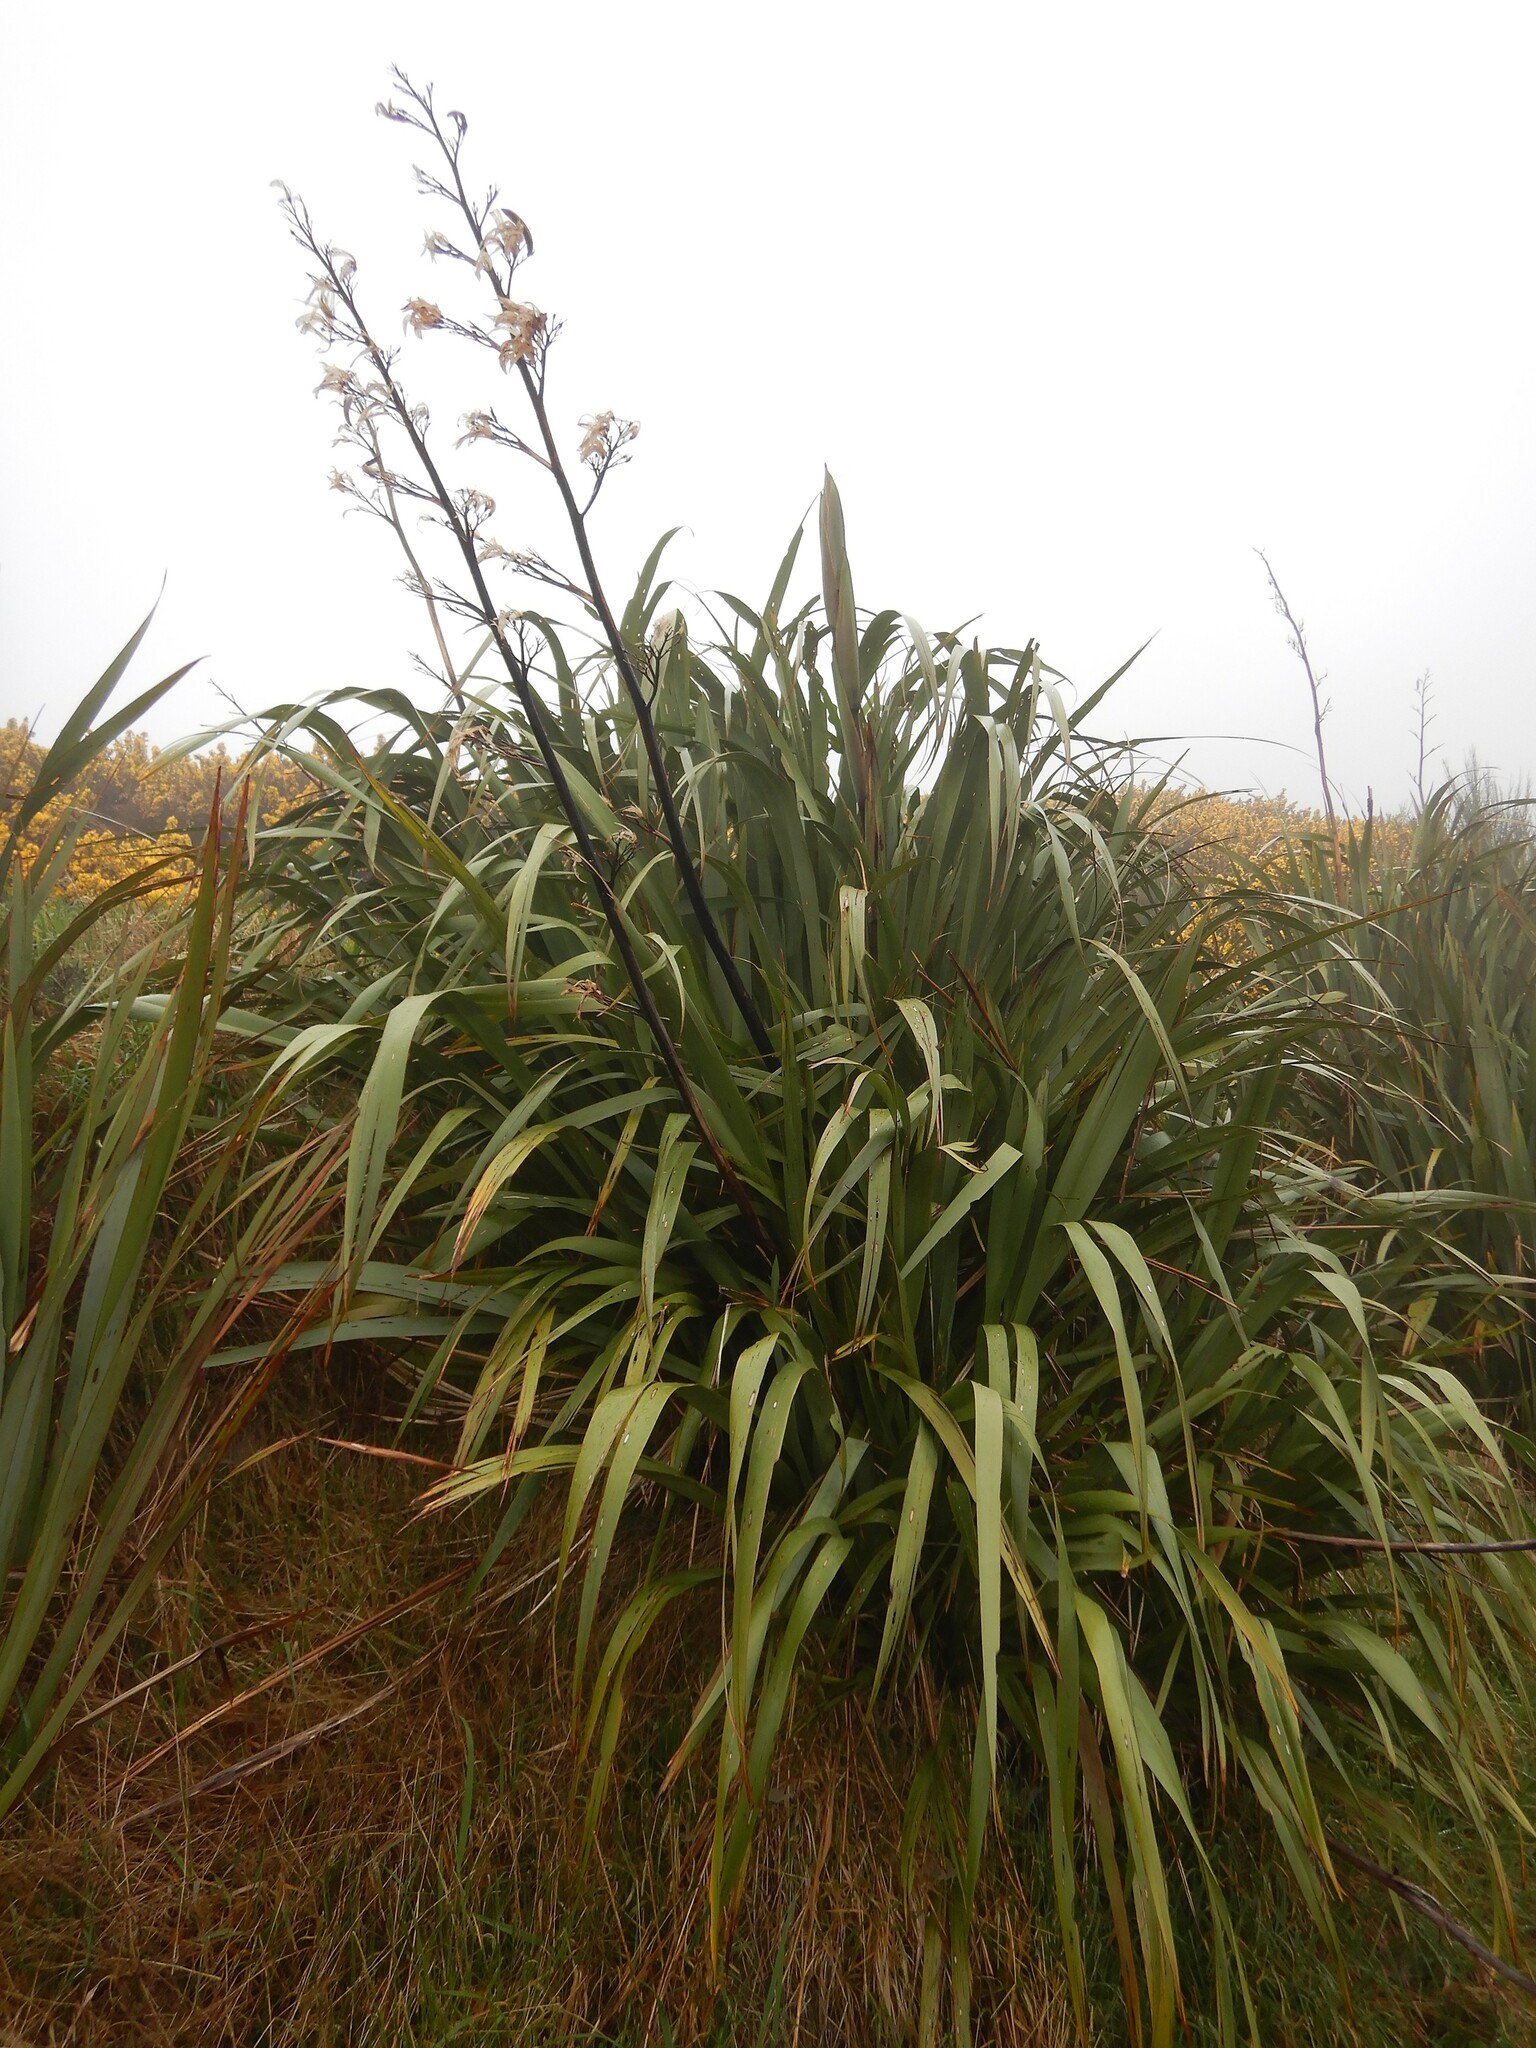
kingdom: Plantae
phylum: Tracheophyta
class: Liliopsida
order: Asparagales
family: Asphodelaceae
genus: Phormium
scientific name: Phormium colensoi
